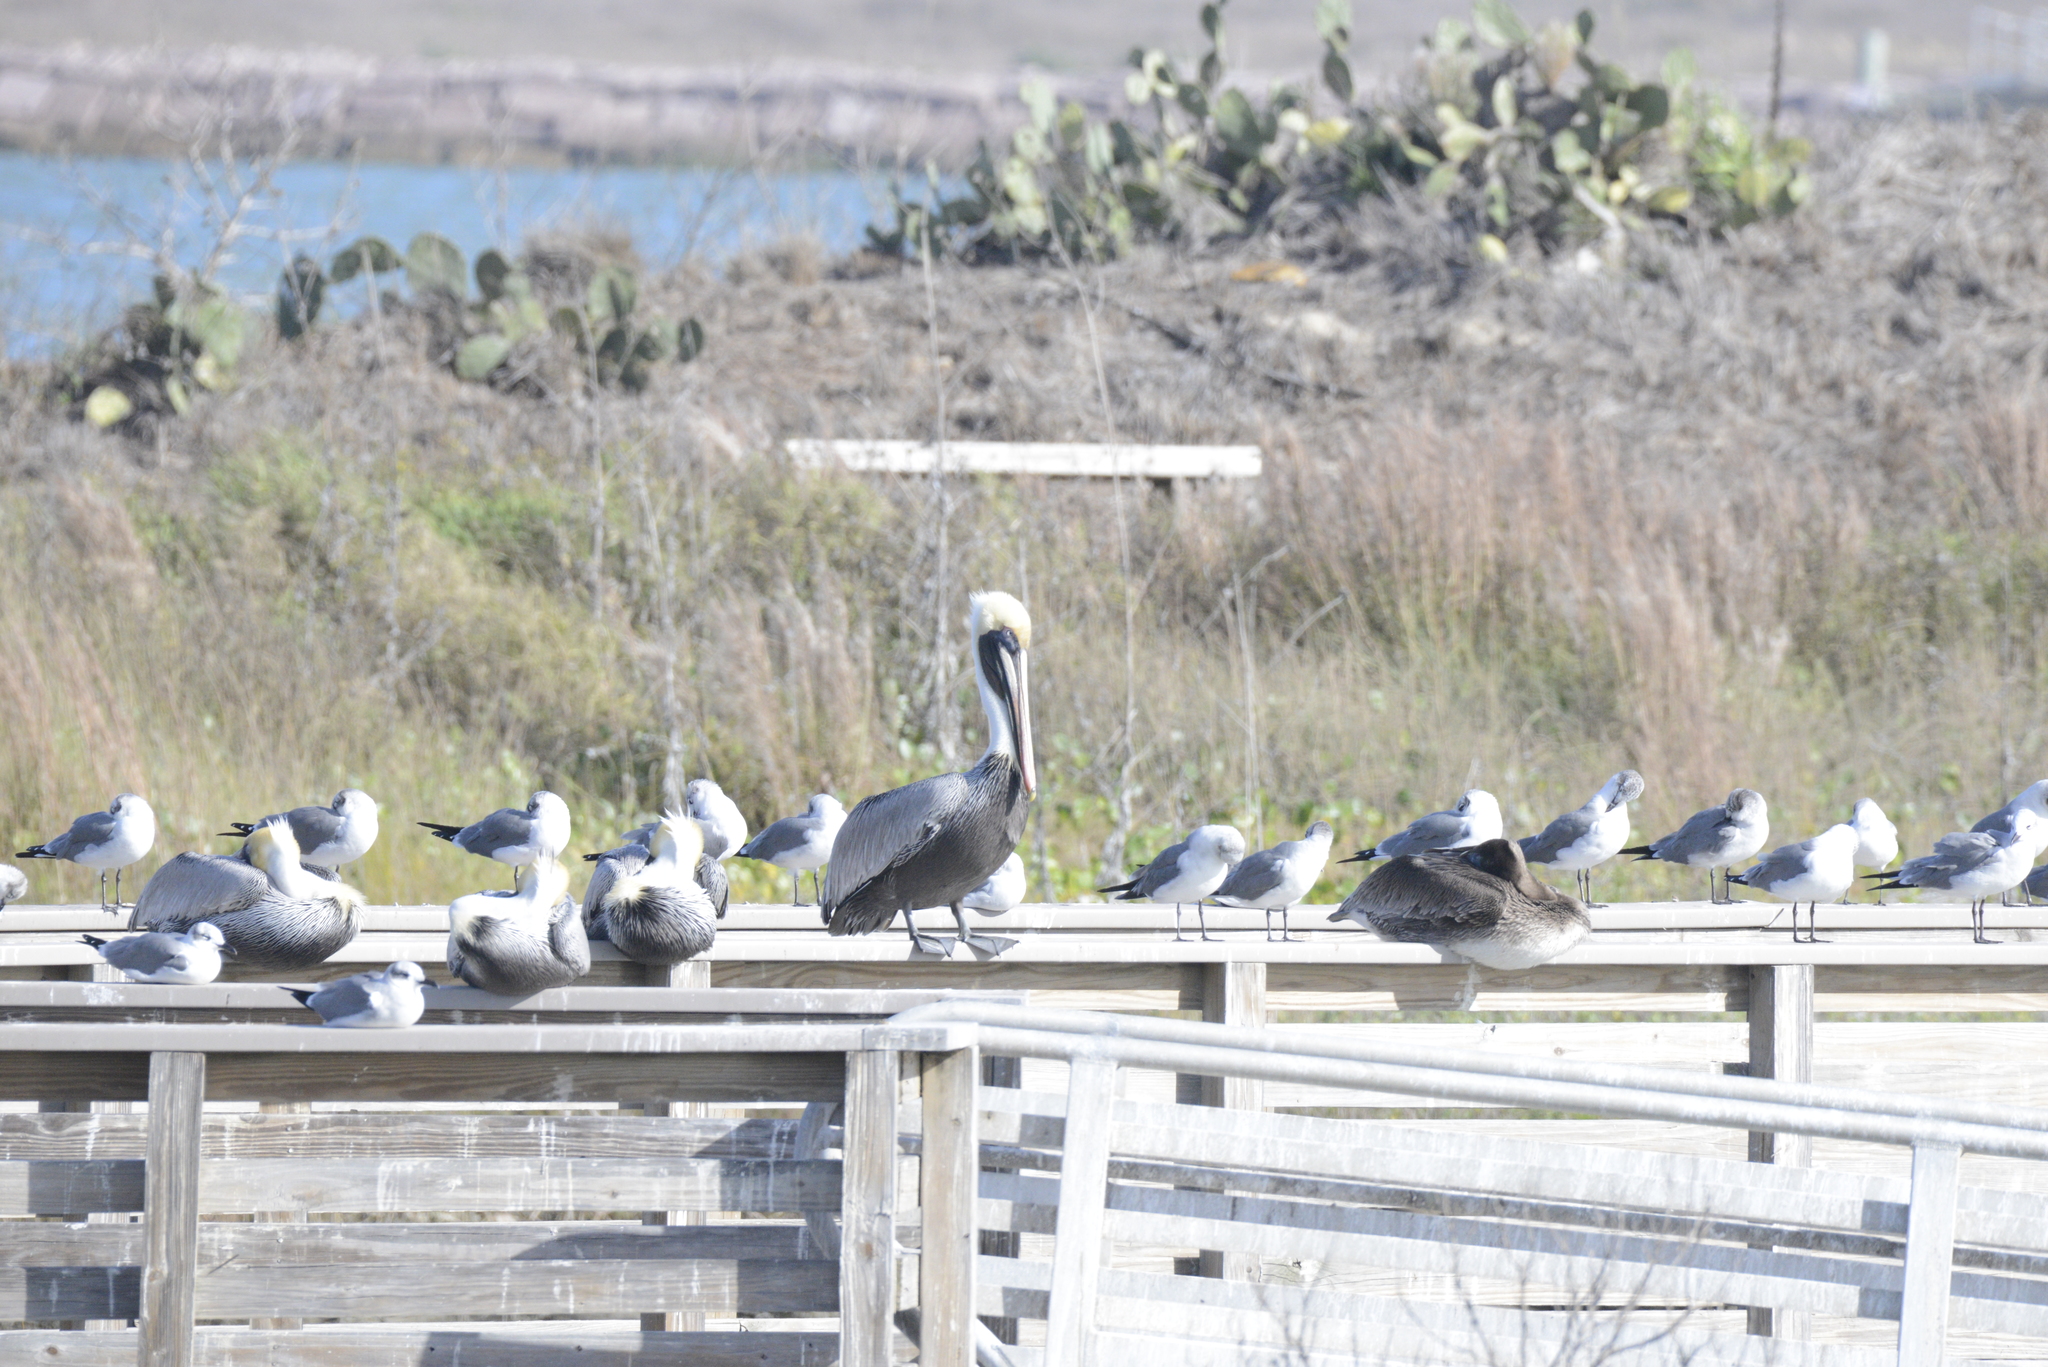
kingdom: Animalia
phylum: Chordata
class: Aves
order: Charadriiformes
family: Laridae
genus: Leucophaeus
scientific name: Leucophaeus atricilla
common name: Laughing gull
